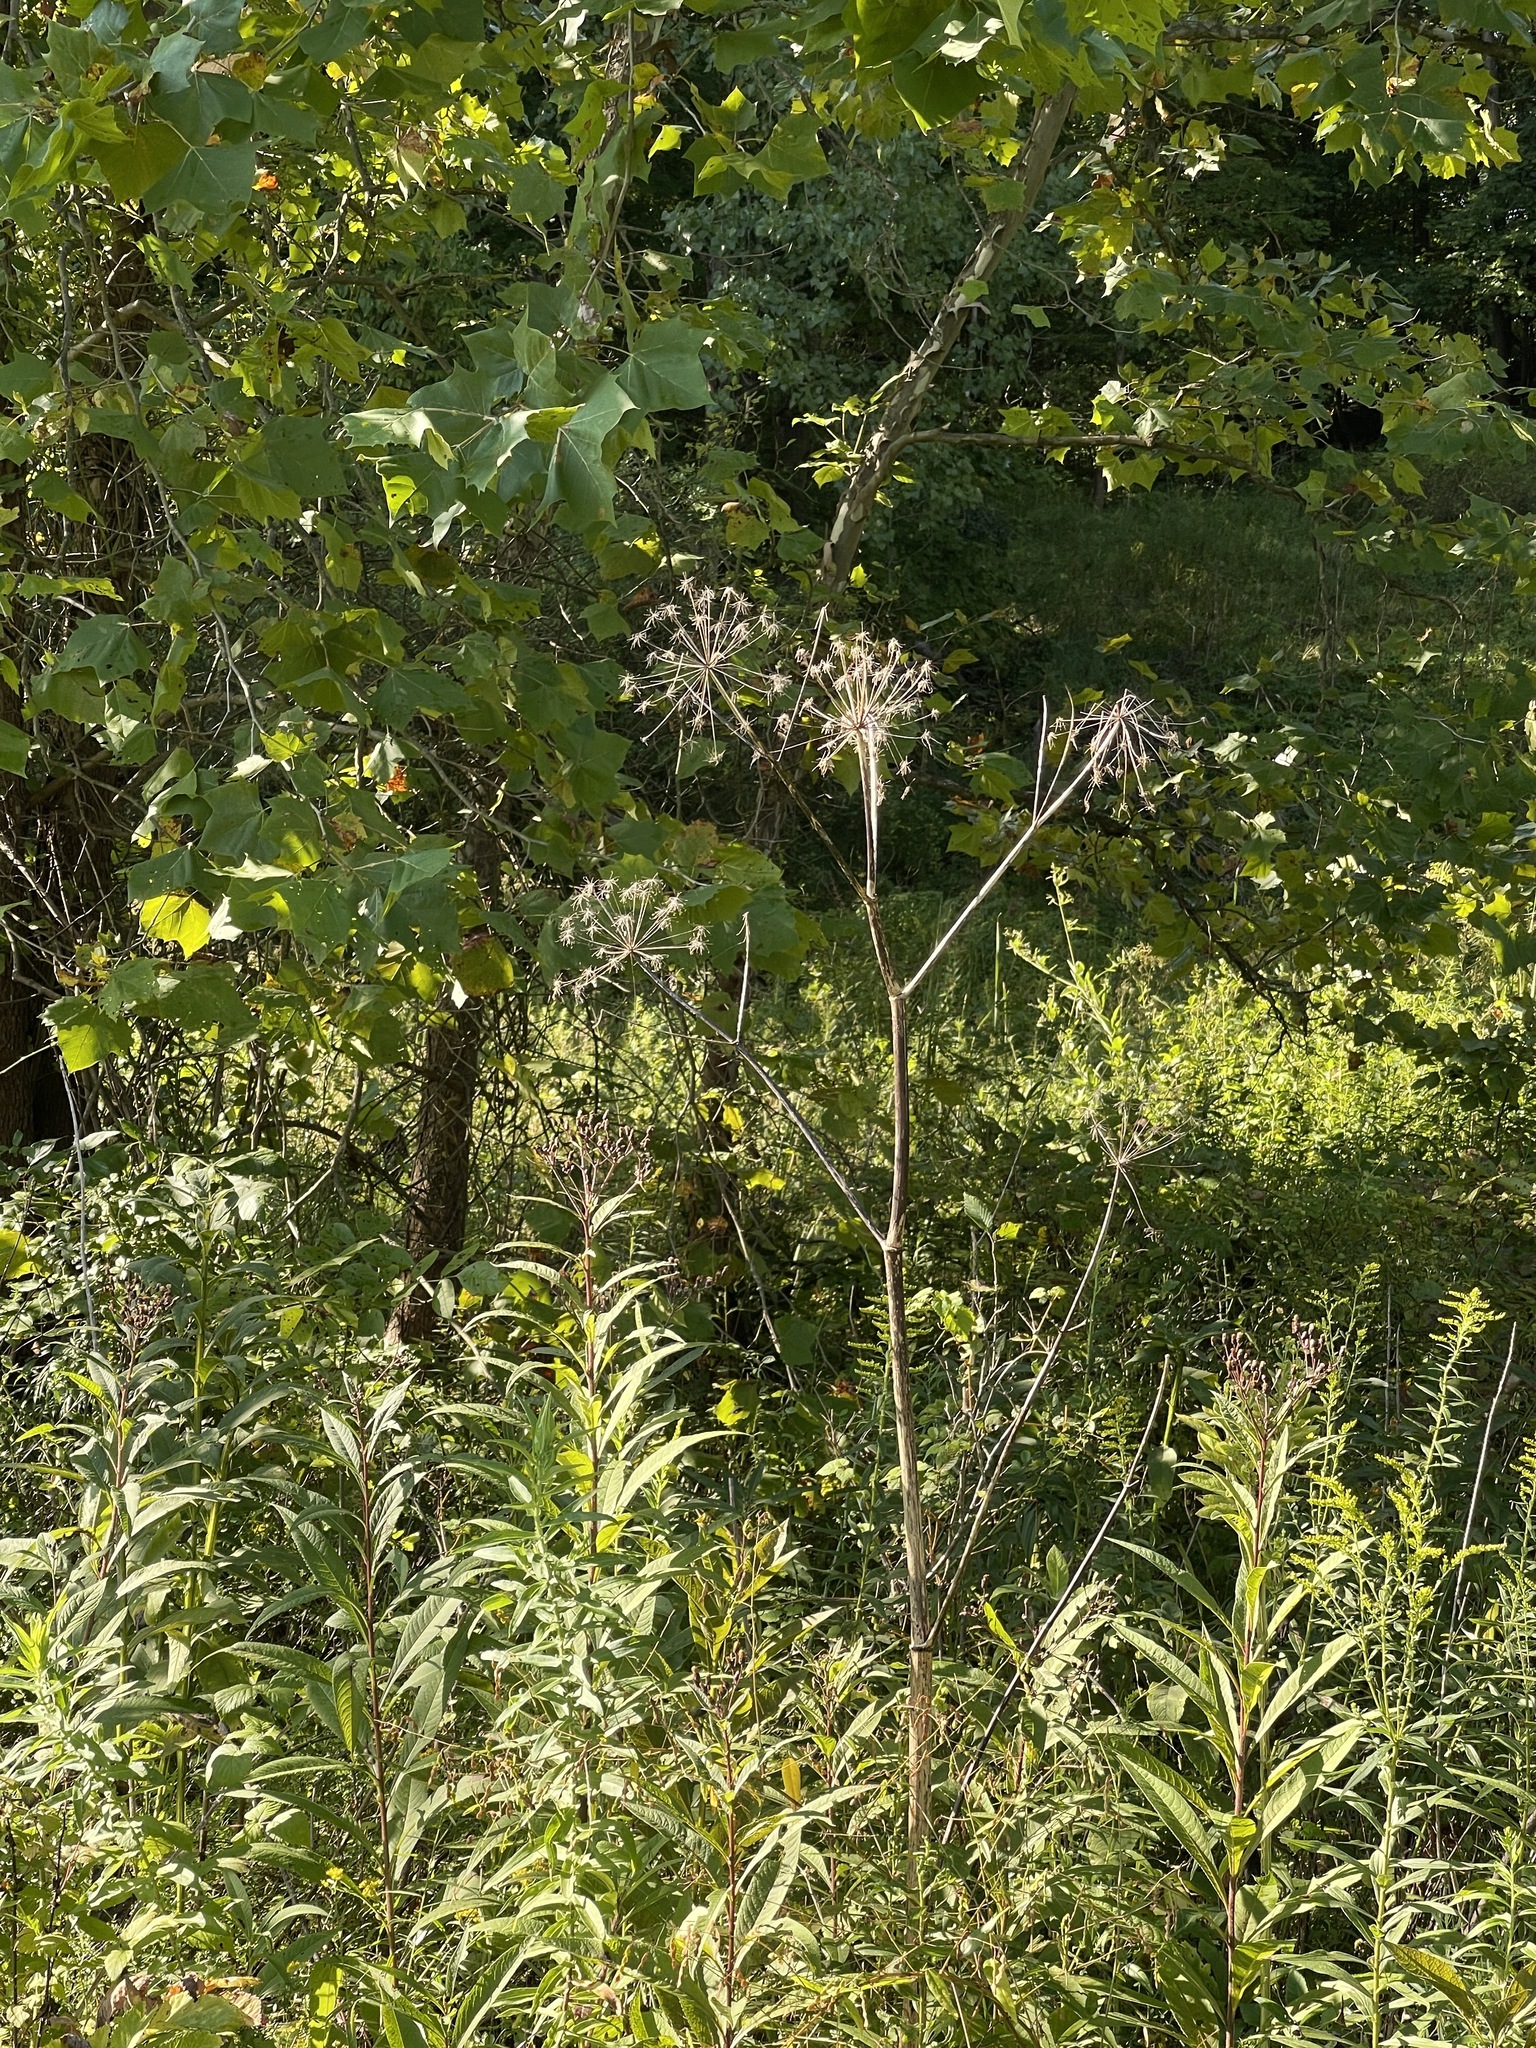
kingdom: Plantae
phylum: Tracheophyta
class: Magnoliopsida
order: Apiales
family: Apiaceae
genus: Angelica
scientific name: Angelica atropurpurea
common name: Great angelica
